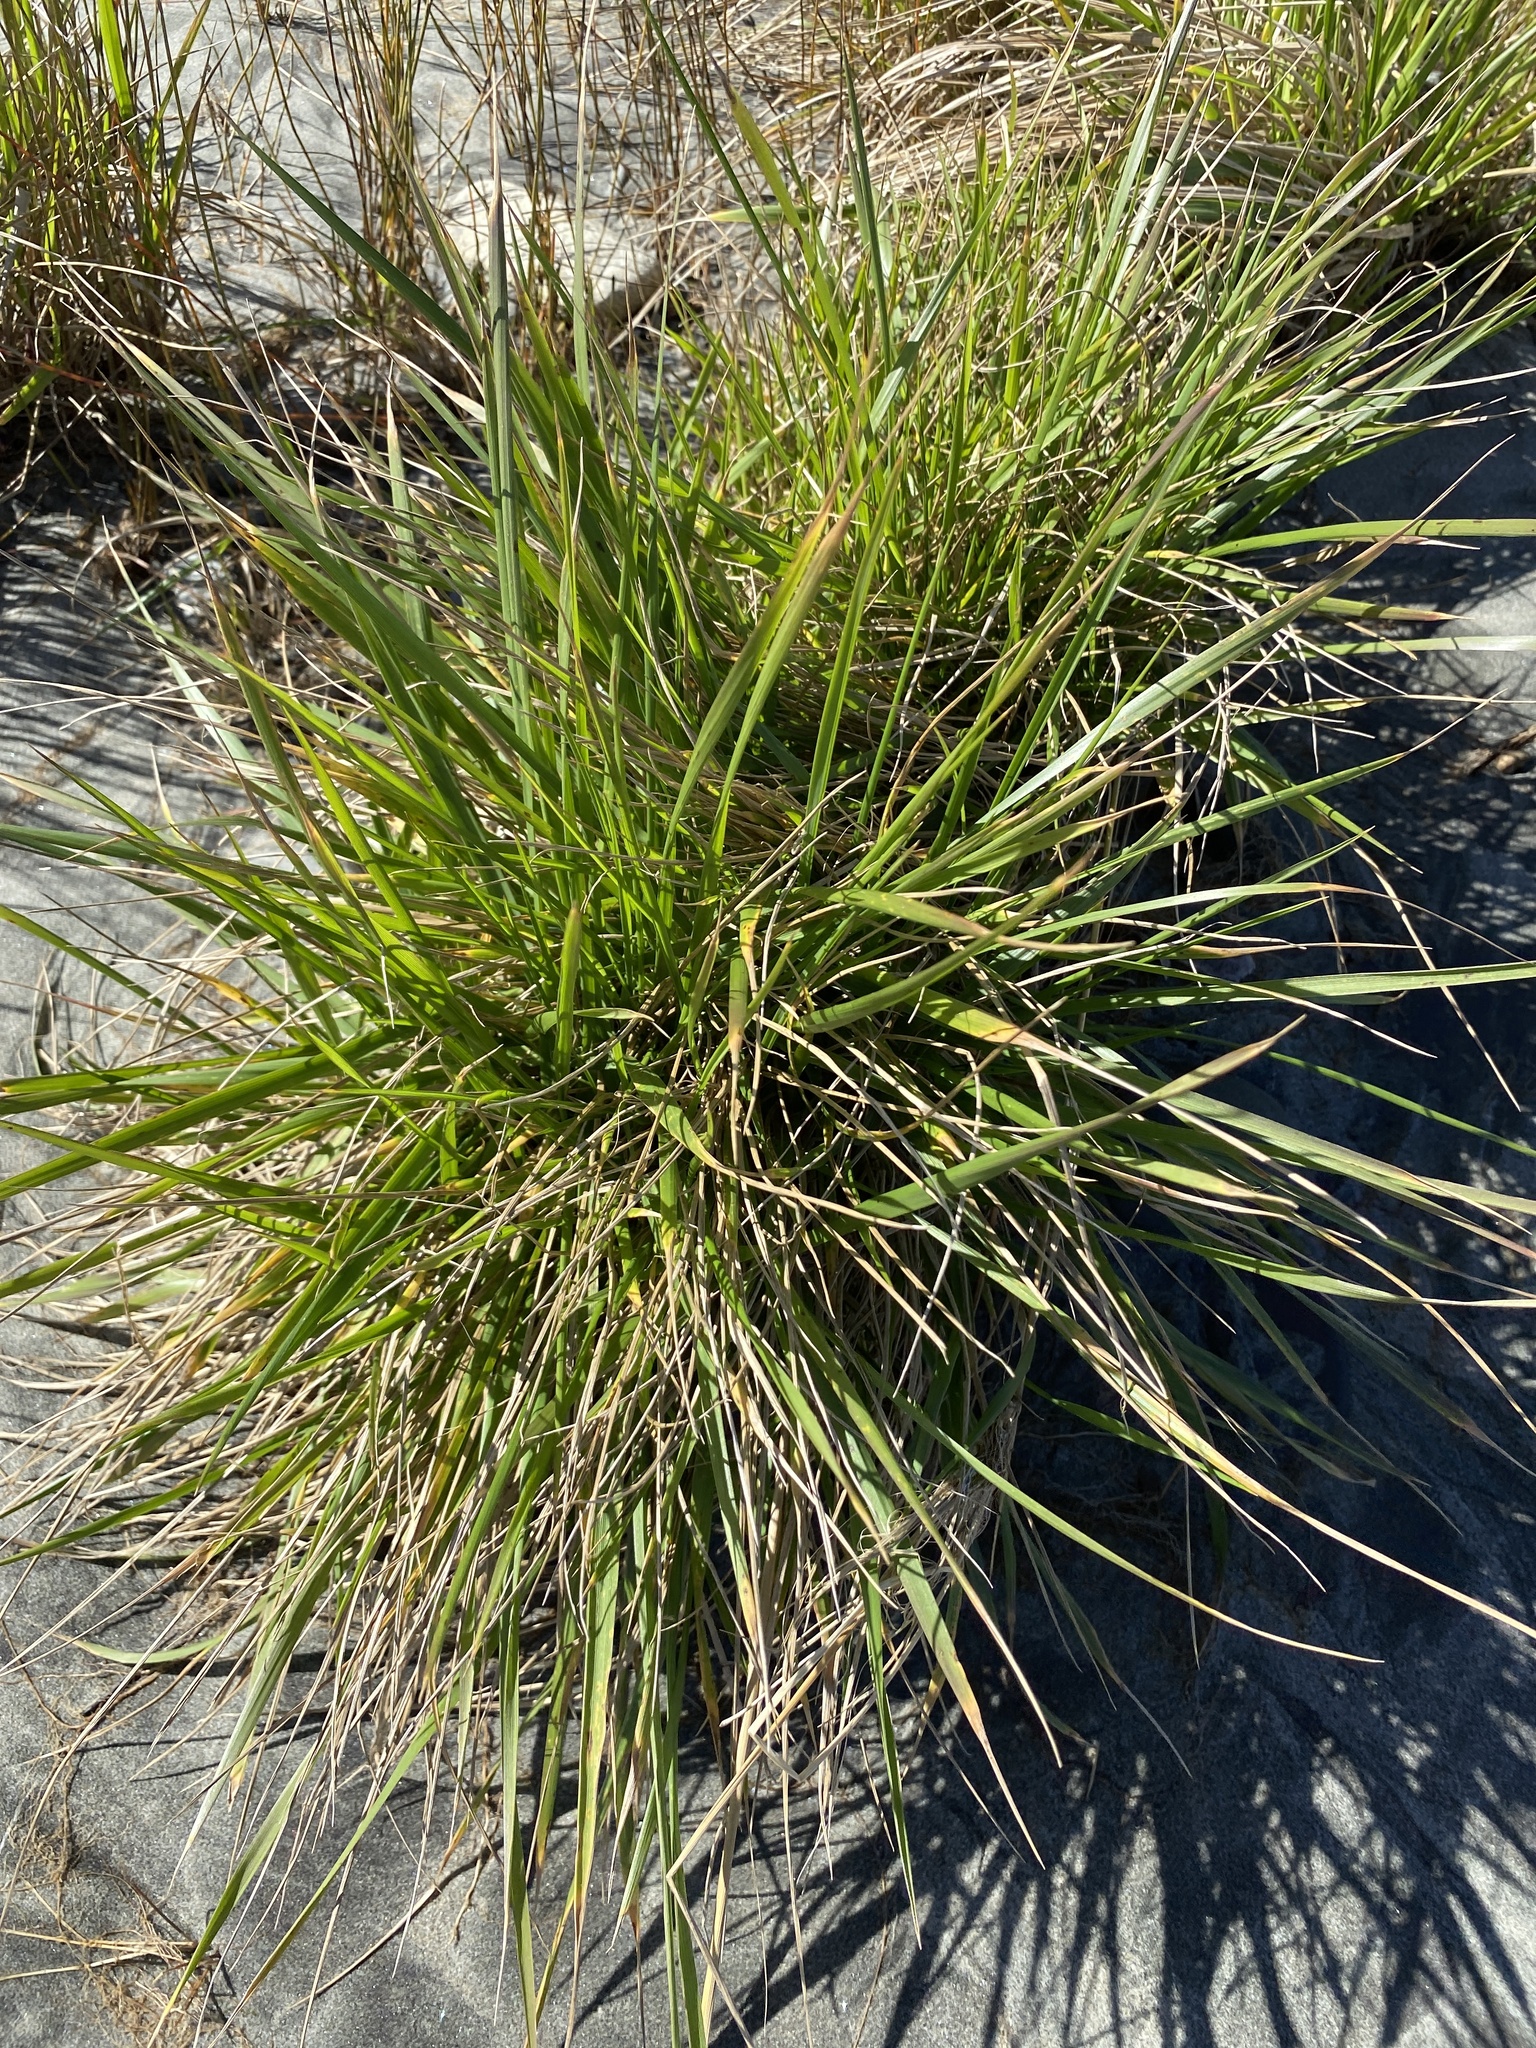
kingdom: Plantae
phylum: Tracheophyta
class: Liliopsida
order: Poales
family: Poaceae
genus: Lolium
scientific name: Lolium arundinaceum
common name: Reed fescue
